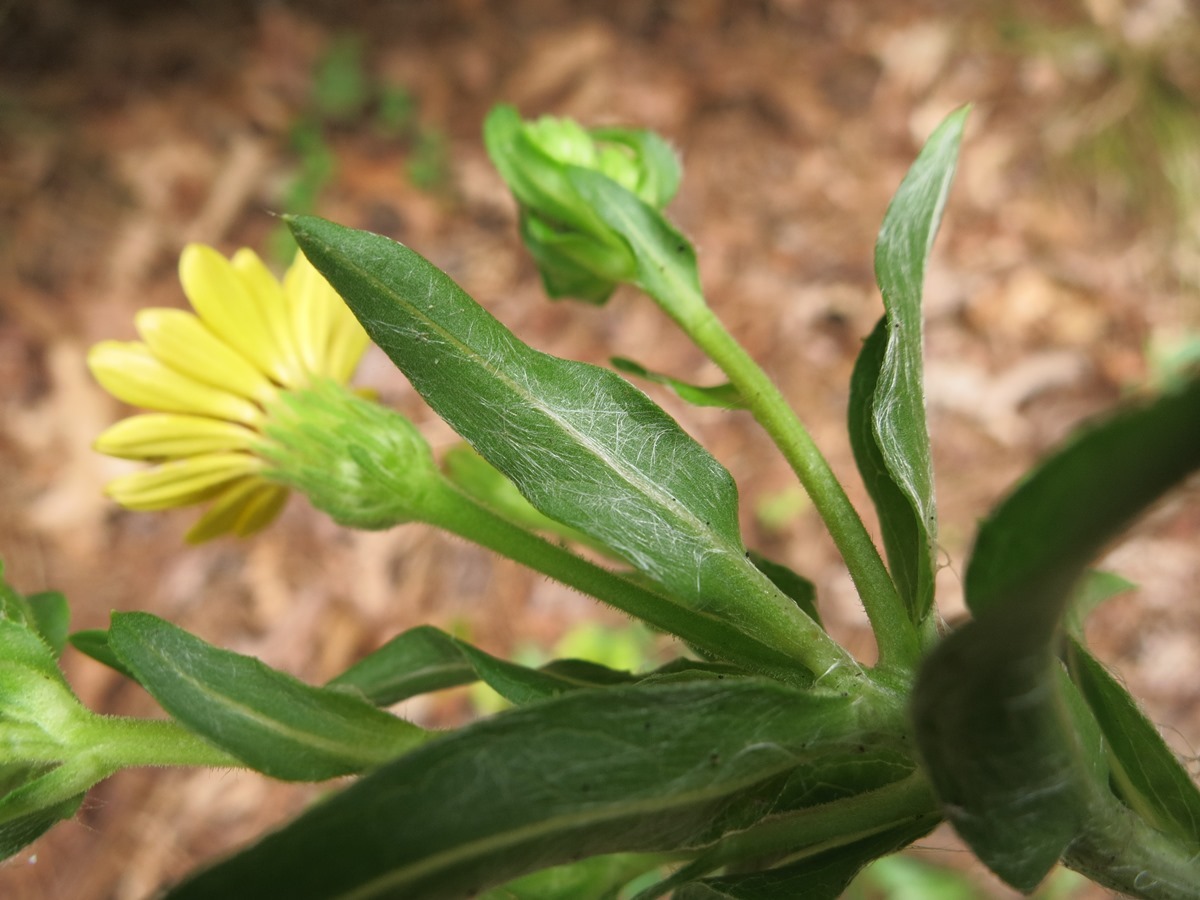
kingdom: Plantae
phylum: Tracheophyta
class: Magnoliopsida
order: Asterales
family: Asteraceae
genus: Chrysopsis
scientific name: Chrysopsis mariana
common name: Maryland golden-aster
